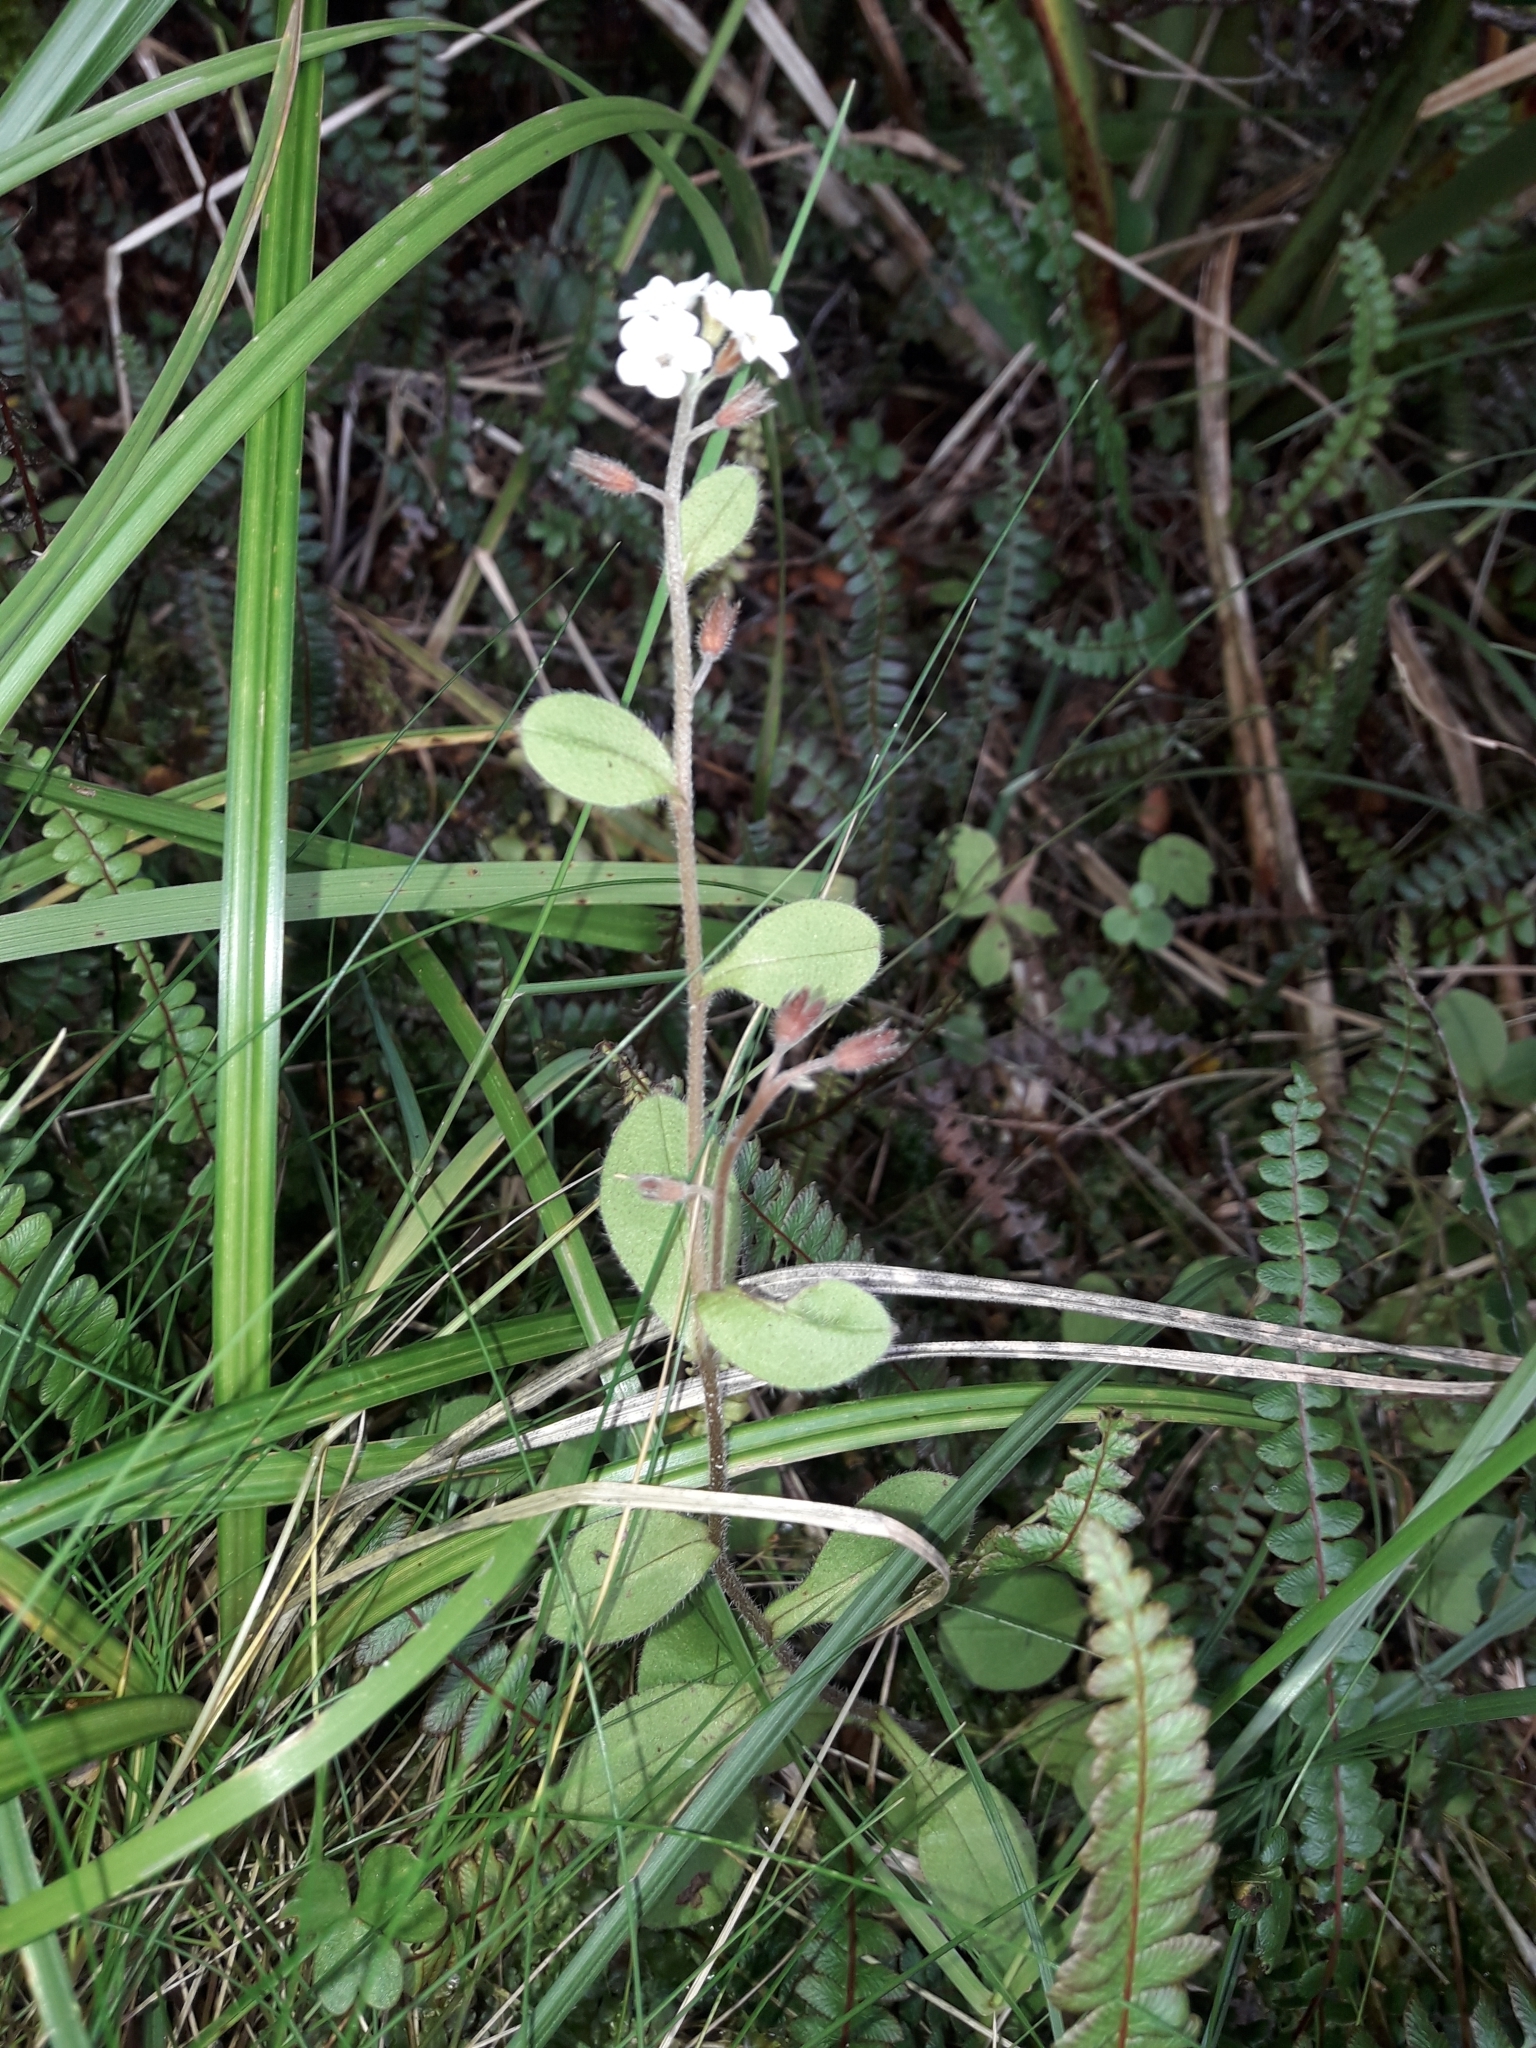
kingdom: Plantae
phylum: Tracheophyta
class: Magnoliopsida
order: Boraginales
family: Boraginaceae
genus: Myosotis
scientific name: Myosotis forsteri
